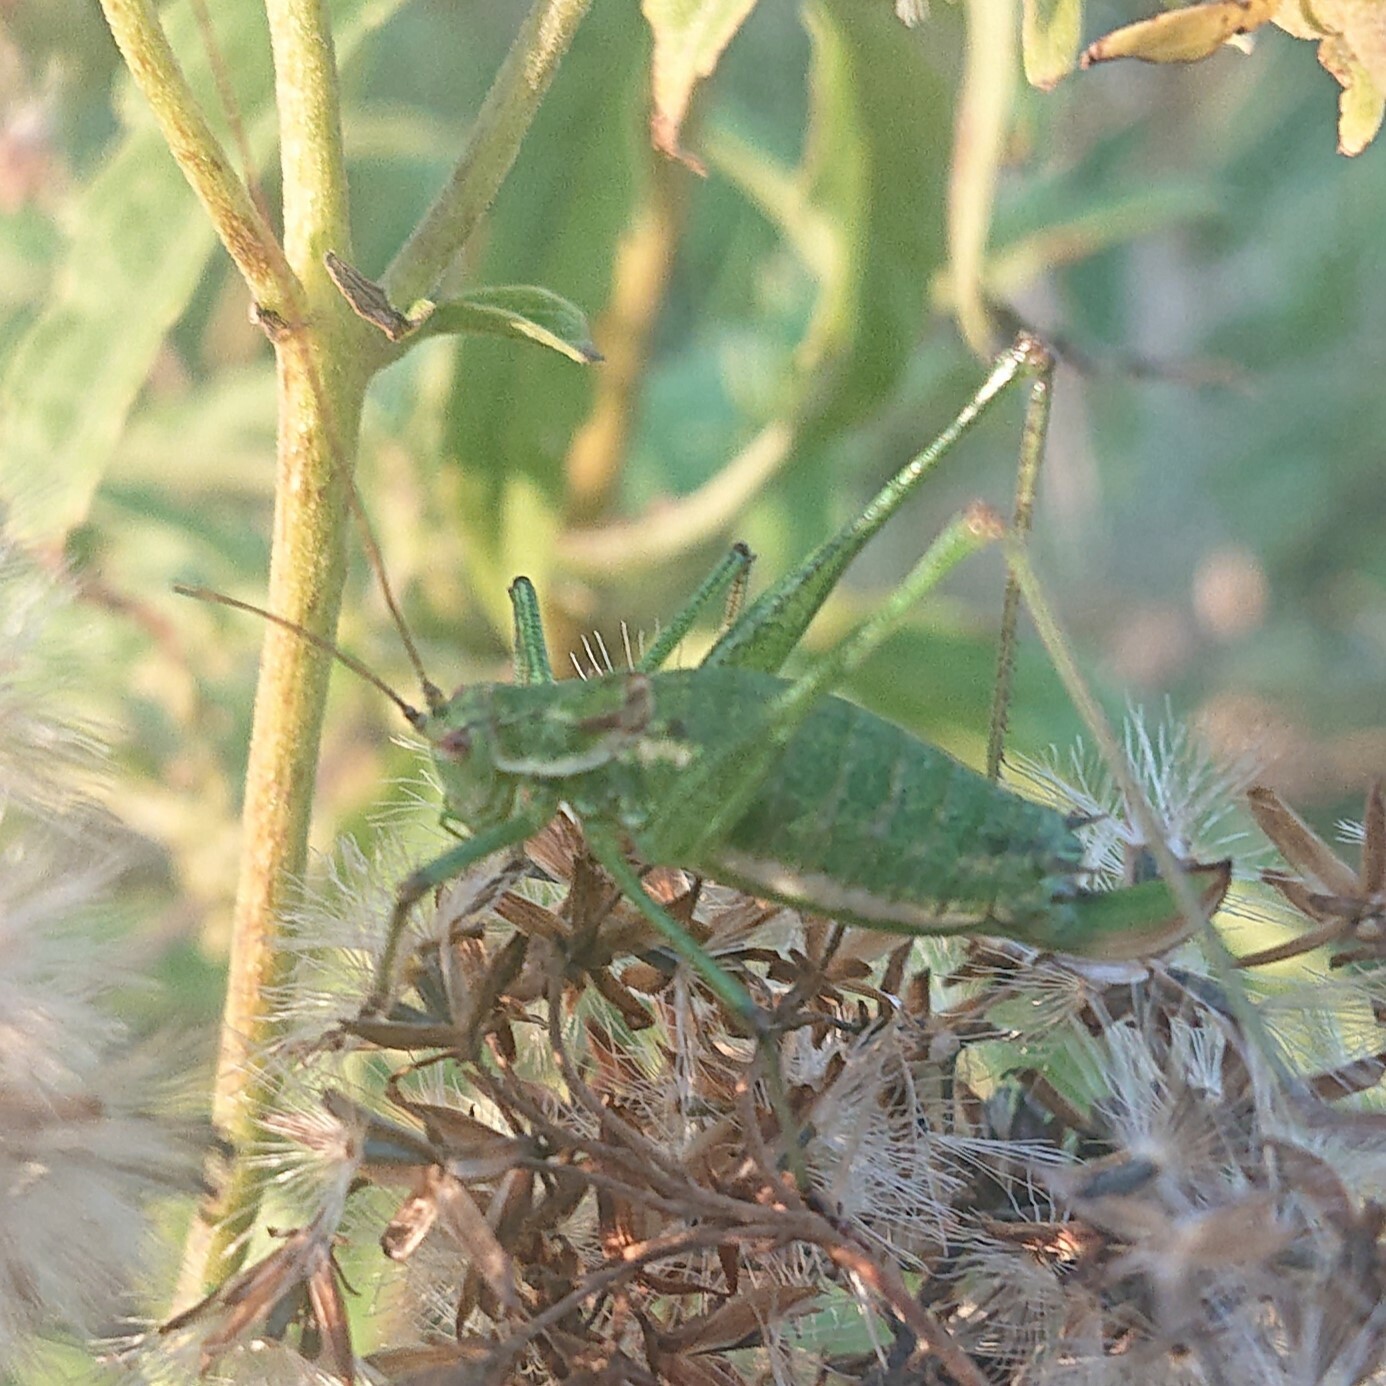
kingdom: Animalia
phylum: Arthropoda
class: Insecta
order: Orthoptera
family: Tettigoniidae
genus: Leptophyes
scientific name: Leptophyes albovittata
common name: Striped bush-cricket
